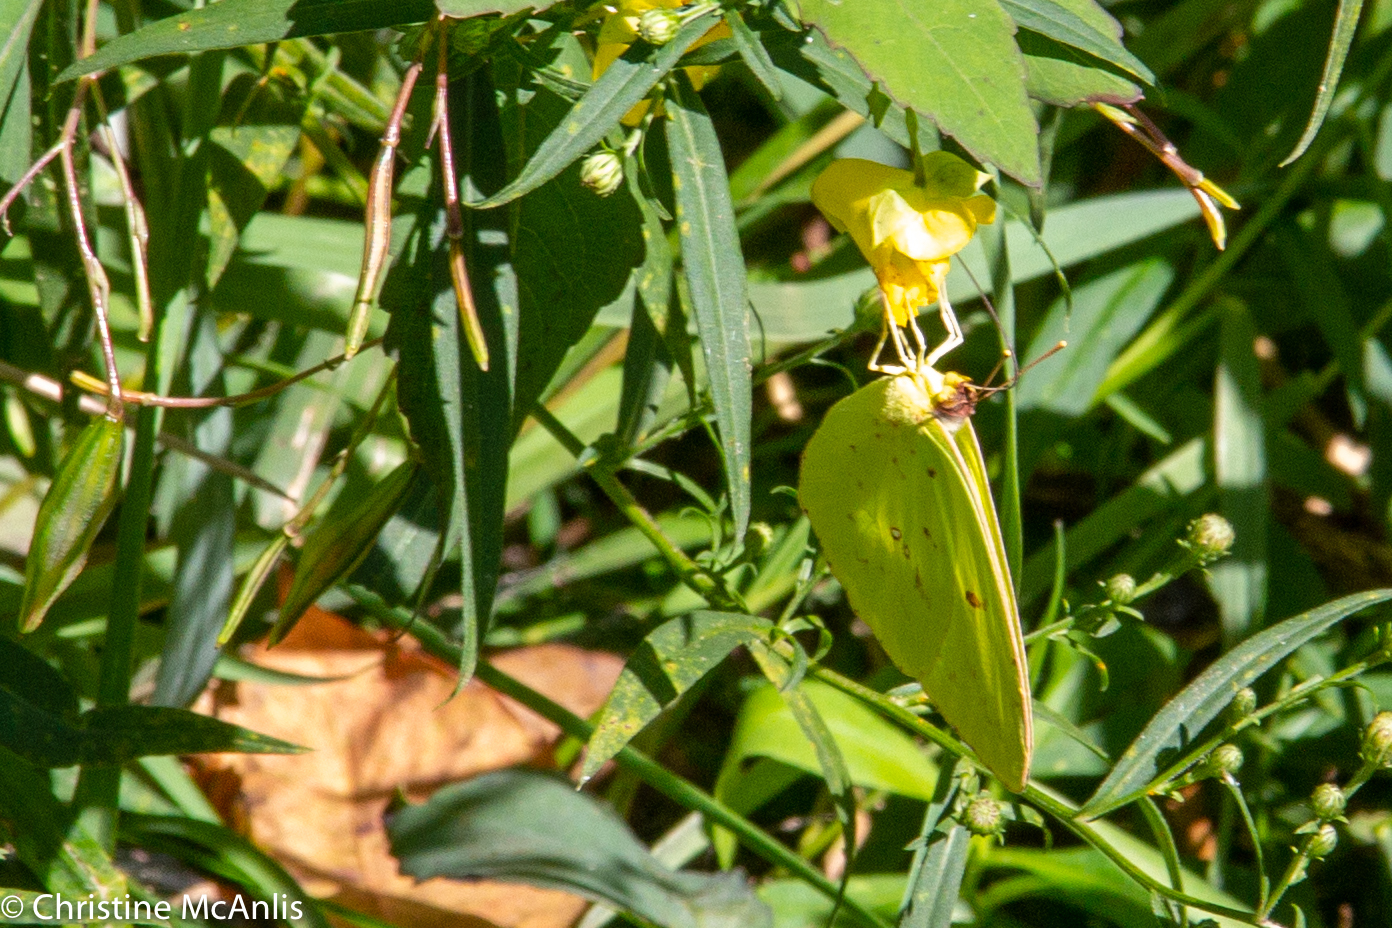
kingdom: Animalia
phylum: Arthropoda
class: Insecta
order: Lepidoptera
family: Pieridae
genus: Phoebis
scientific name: Phoebis sennae
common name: Cloudless sulphur
